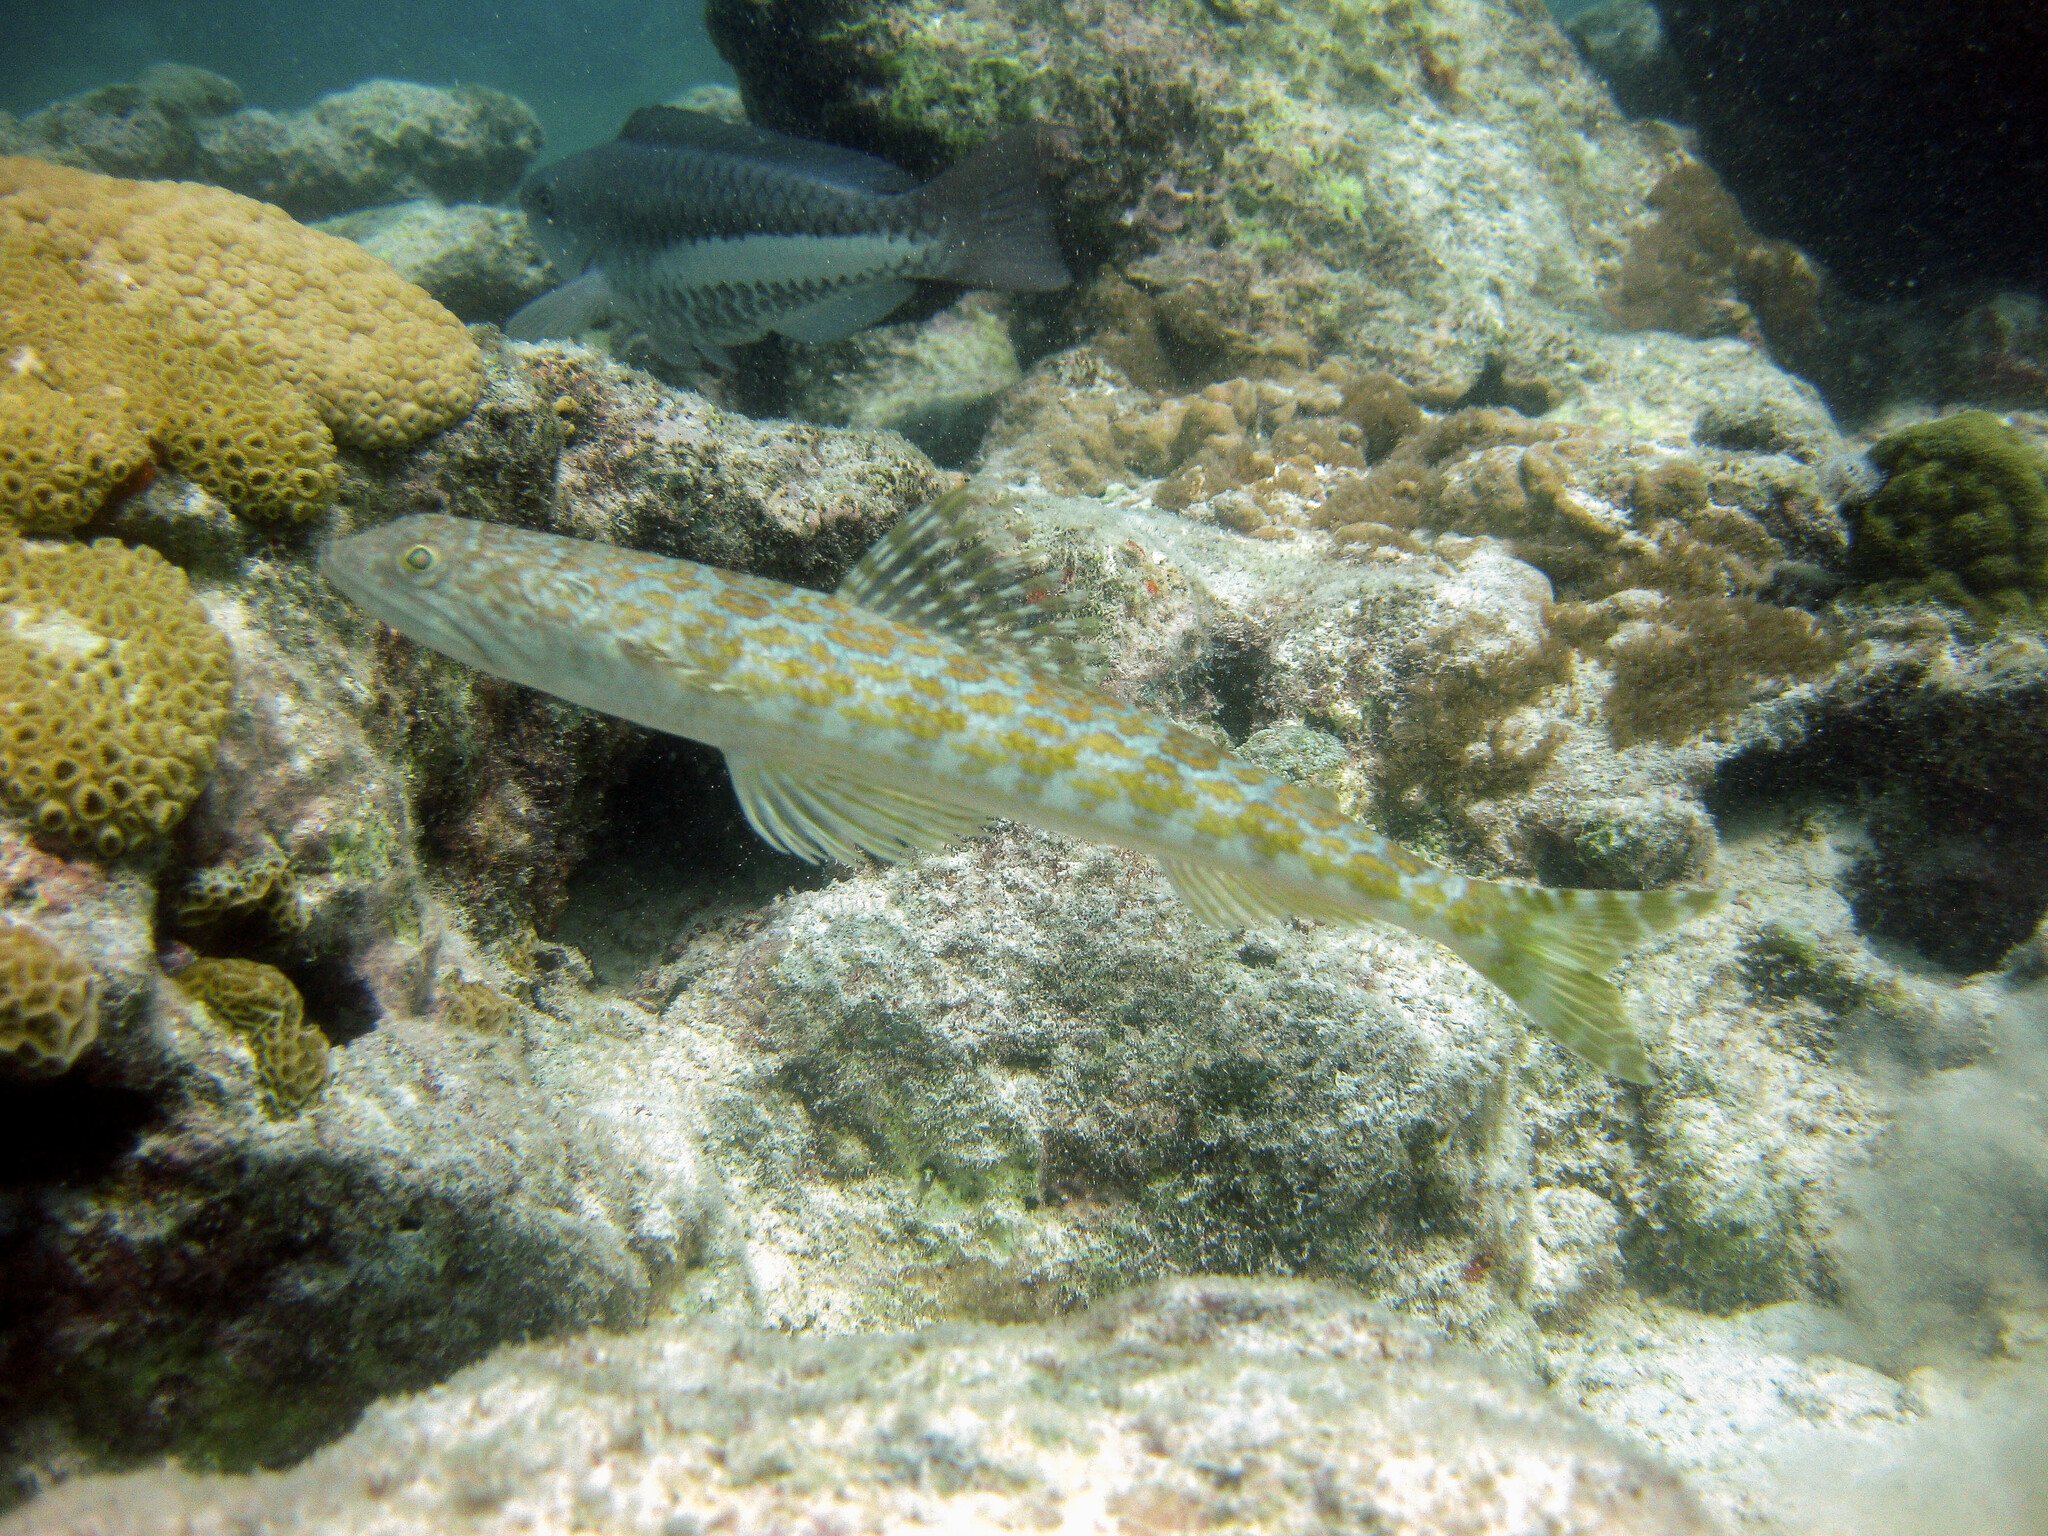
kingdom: Animalia
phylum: Chordata
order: Aulopiformes
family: Synodontidae
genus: Synodus
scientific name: Synodus intermedius
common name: Sand diver
